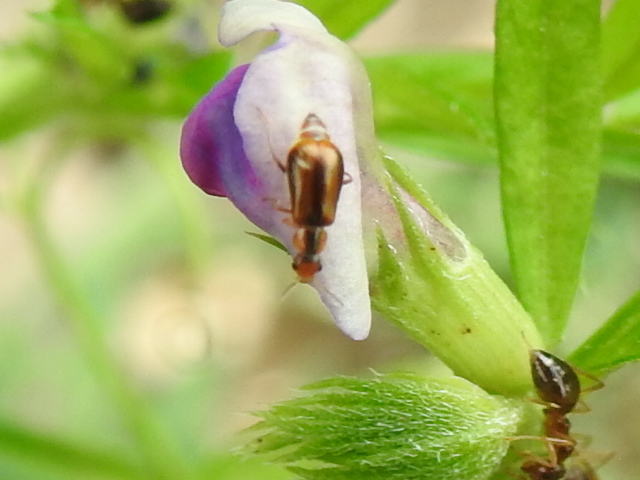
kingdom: Animalia
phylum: Arthropoda
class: Insecta
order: Coleoptera
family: Malachiidae
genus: Attalus
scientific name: Attalus
